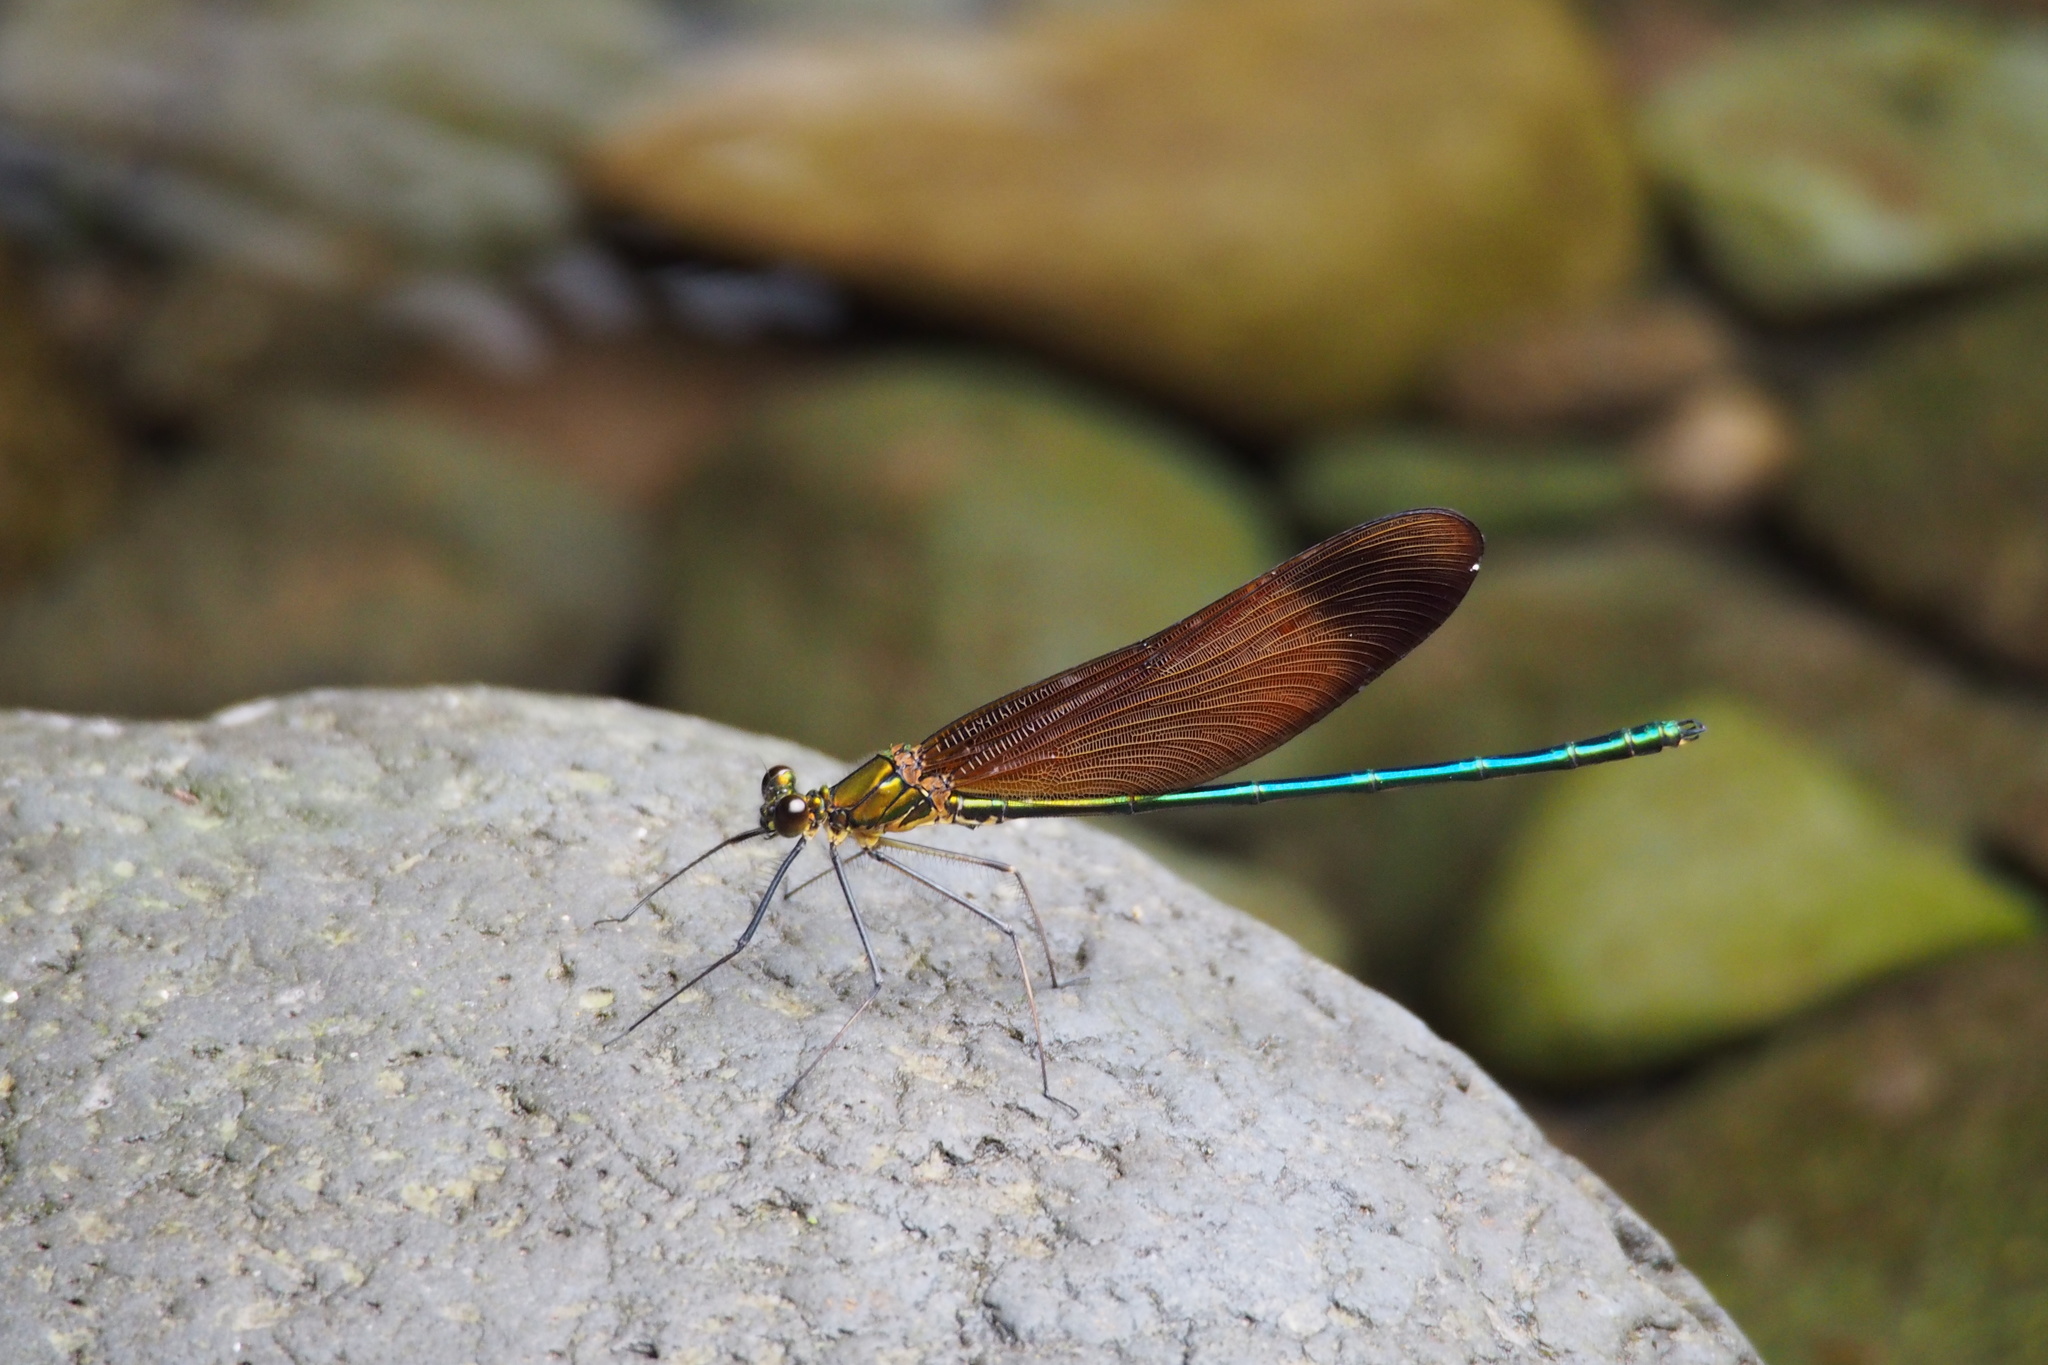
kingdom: Animalia
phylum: Arthropoda
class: Insecta
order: Odonata
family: Calopterygidae
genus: Calopteryx
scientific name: Calopteryx cornelia
